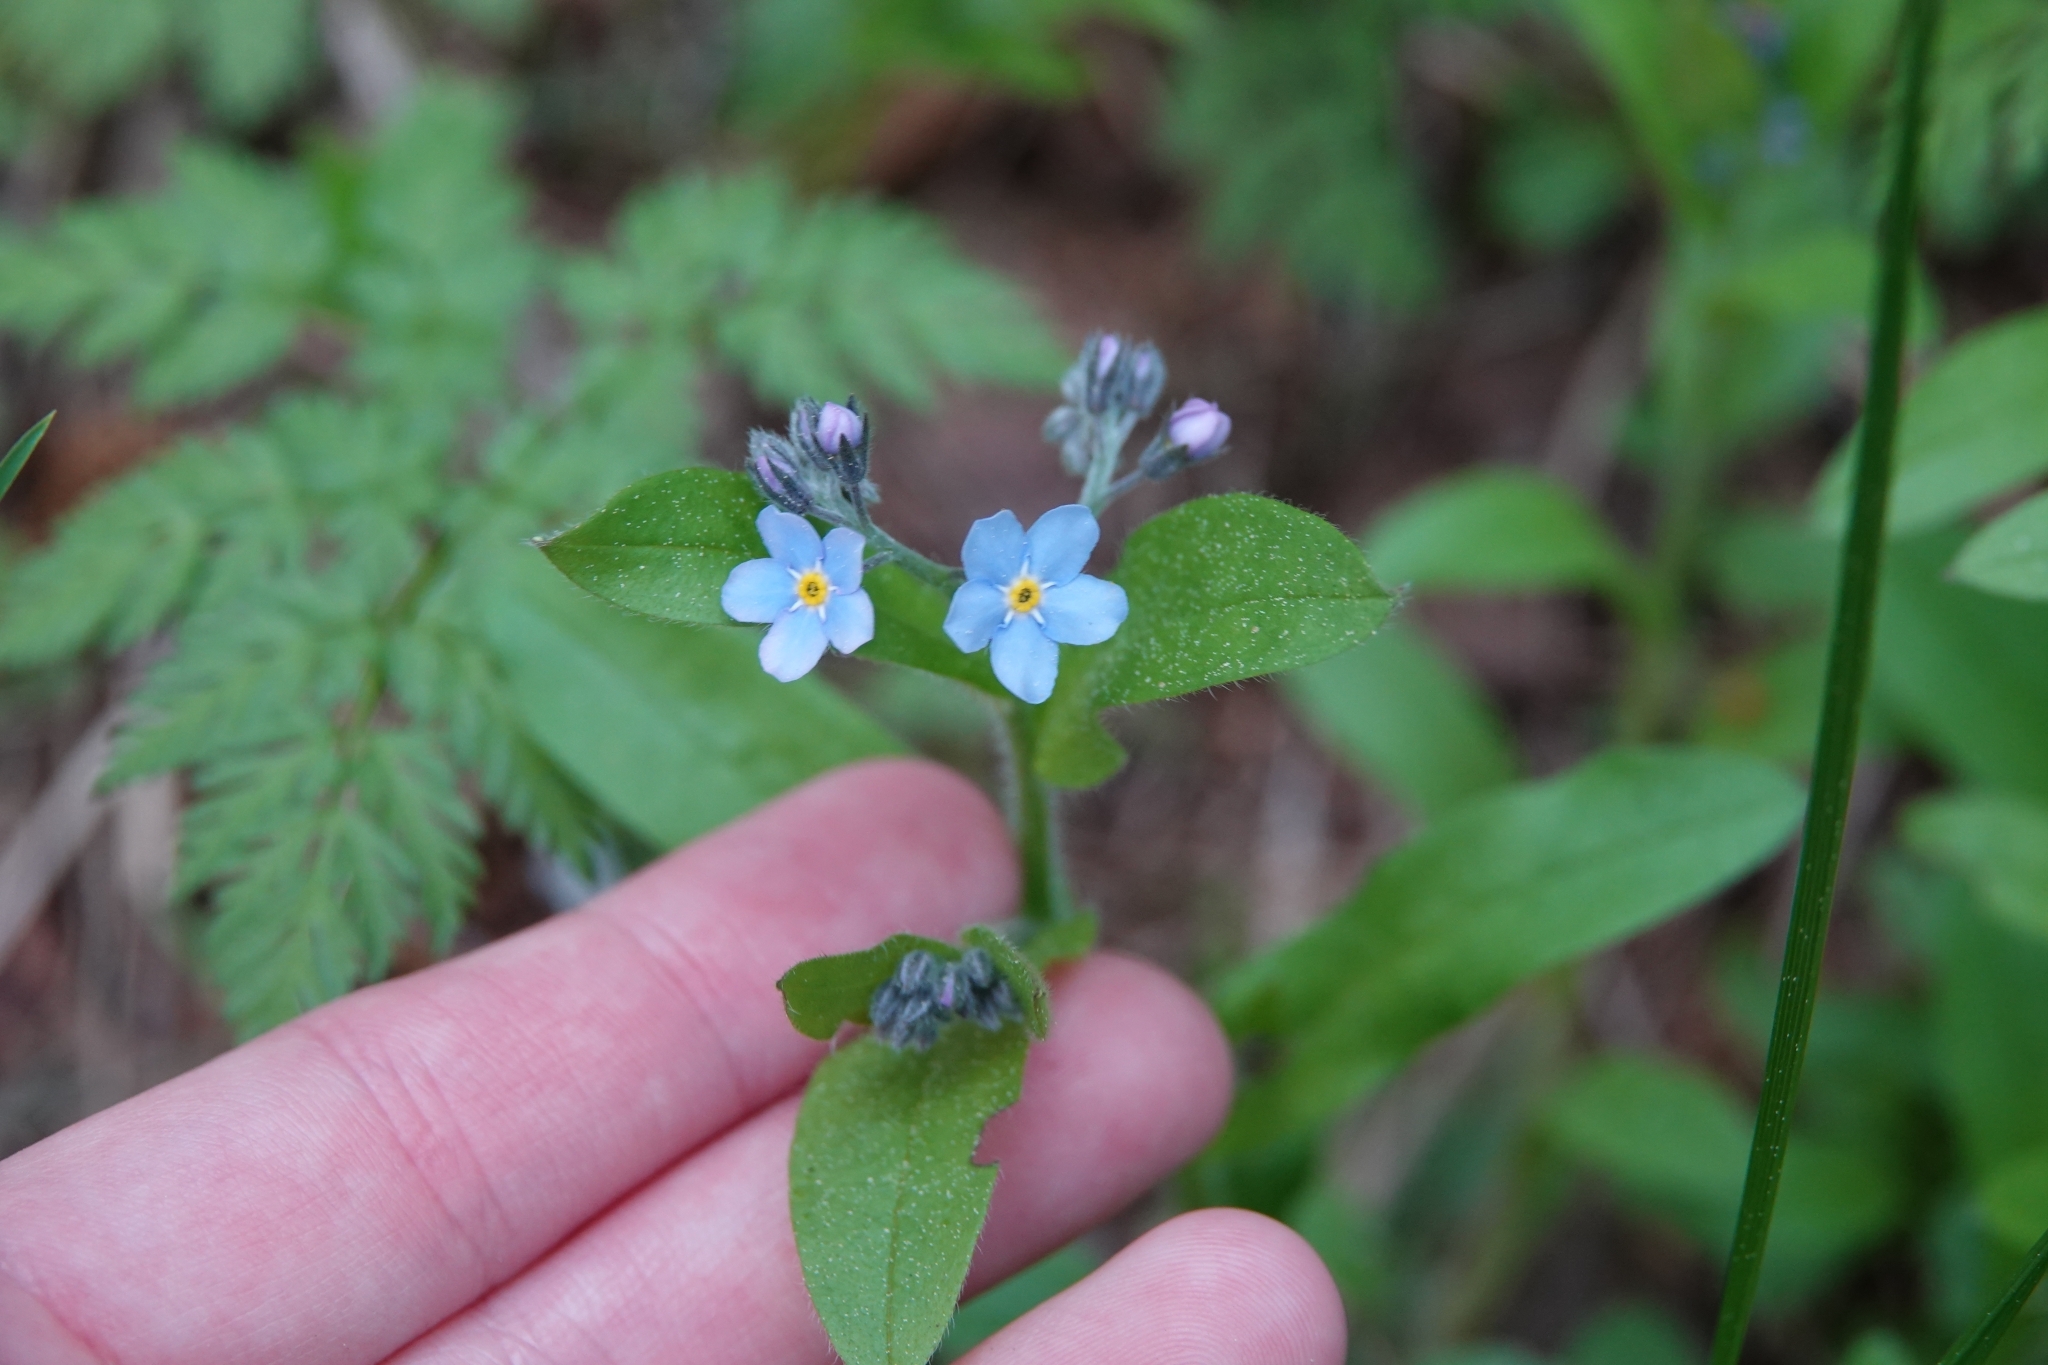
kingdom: Plantae
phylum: Tracheophyta
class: Magnoliopsida
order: Boraginales
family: Boraginaceae
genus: Myosotis
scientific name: Myosotis sylvatica
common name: Wood forget-me-not
